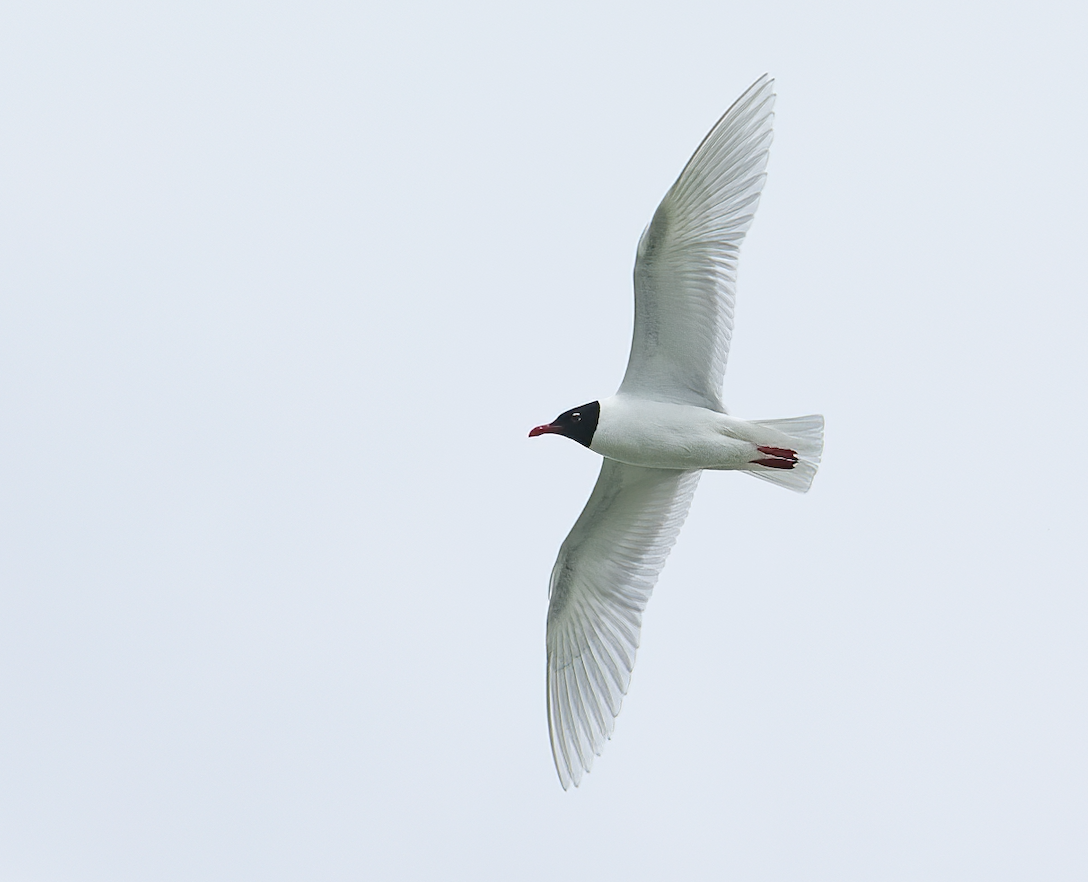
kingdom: Animalia
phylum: Chordata
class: Aves
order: Charadriiformes
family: Laridae
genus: Ichthyaetus
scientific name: Ichthyaetus melanocephalus
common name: Mediterranean gull
